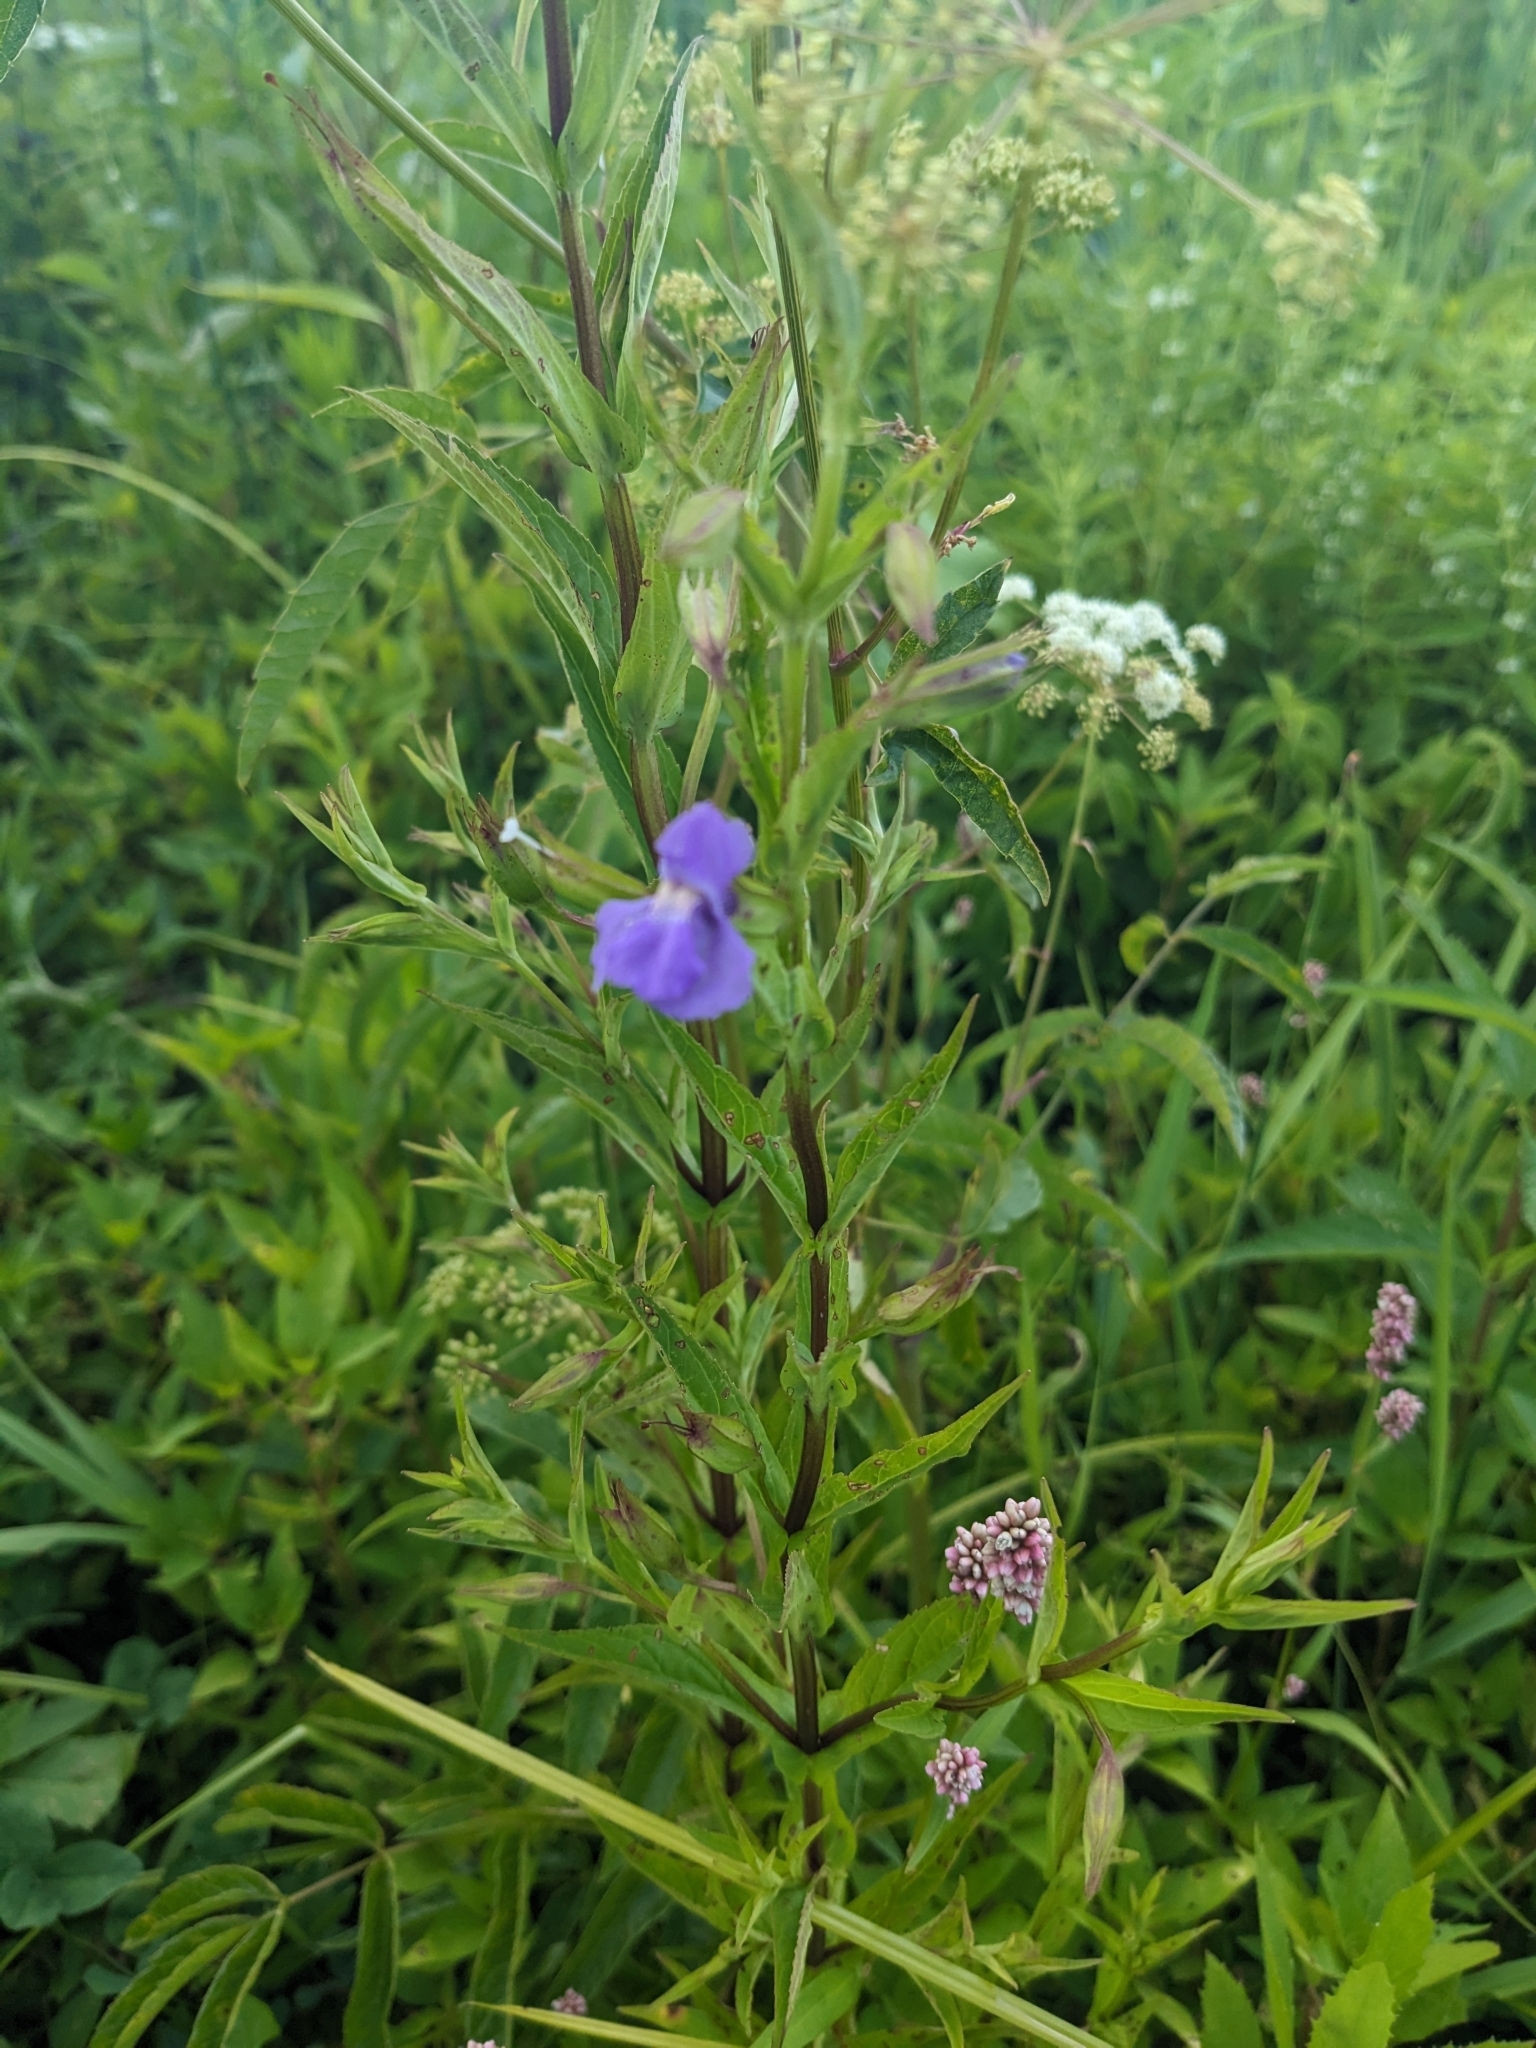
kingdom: Plantae
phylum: Tracheophyta
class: Magnoliopsida
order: Lamiales
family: Phrymaceae
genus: Mimulus
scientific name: Mimulus ringens
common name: Allegheny monkeyflower
